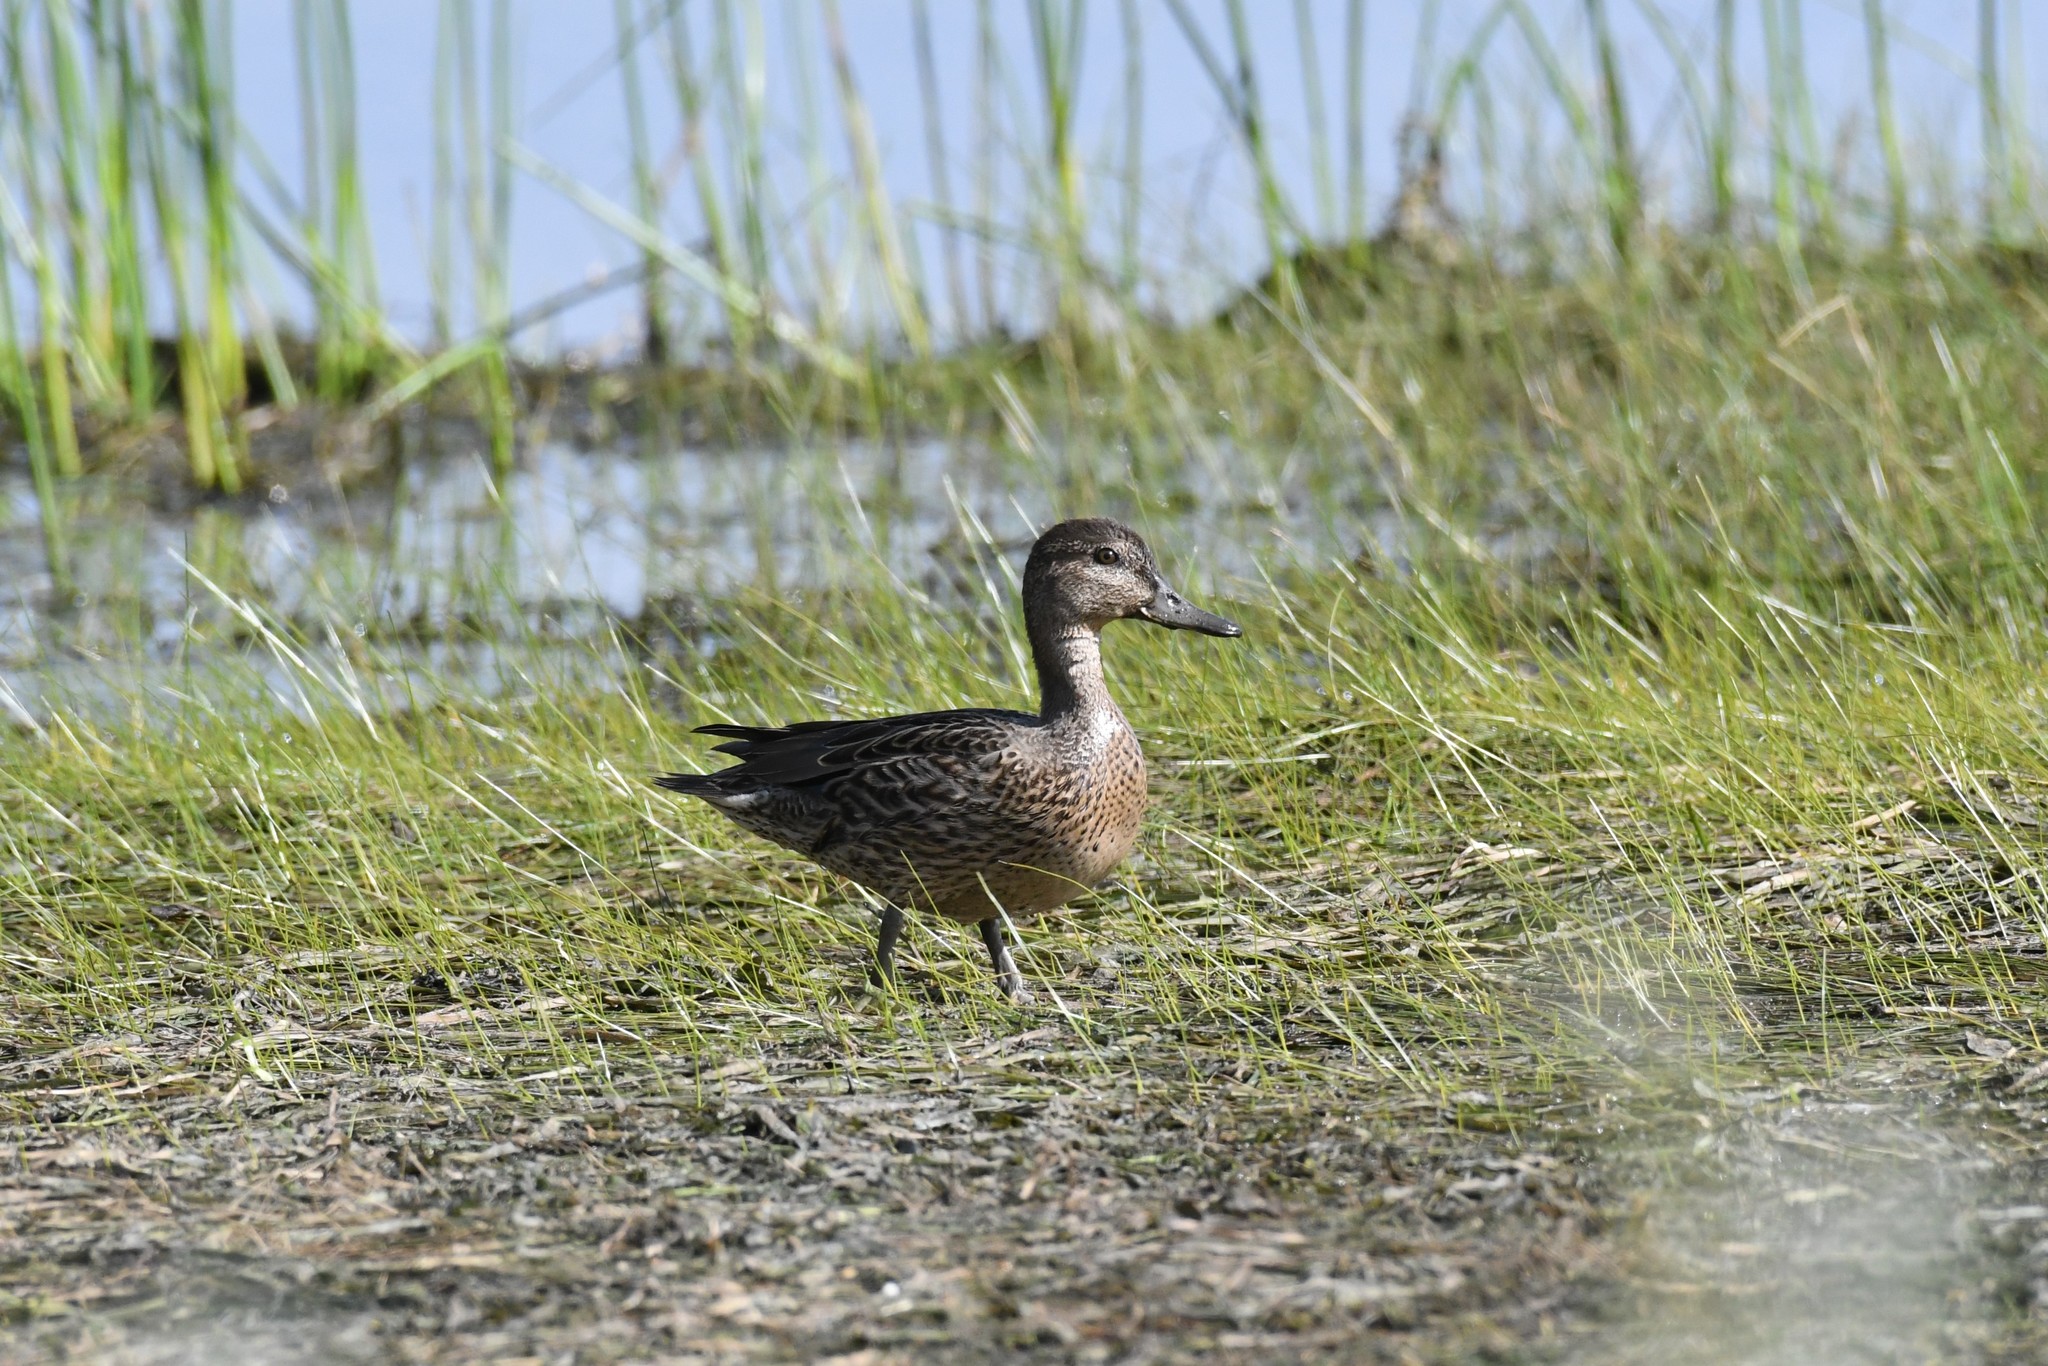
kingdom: Animalia
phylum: Chordata
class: Aves
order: Anseriformes
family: Anatidae
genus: Anas
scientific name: Anas crecca
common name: Eurasian teal
